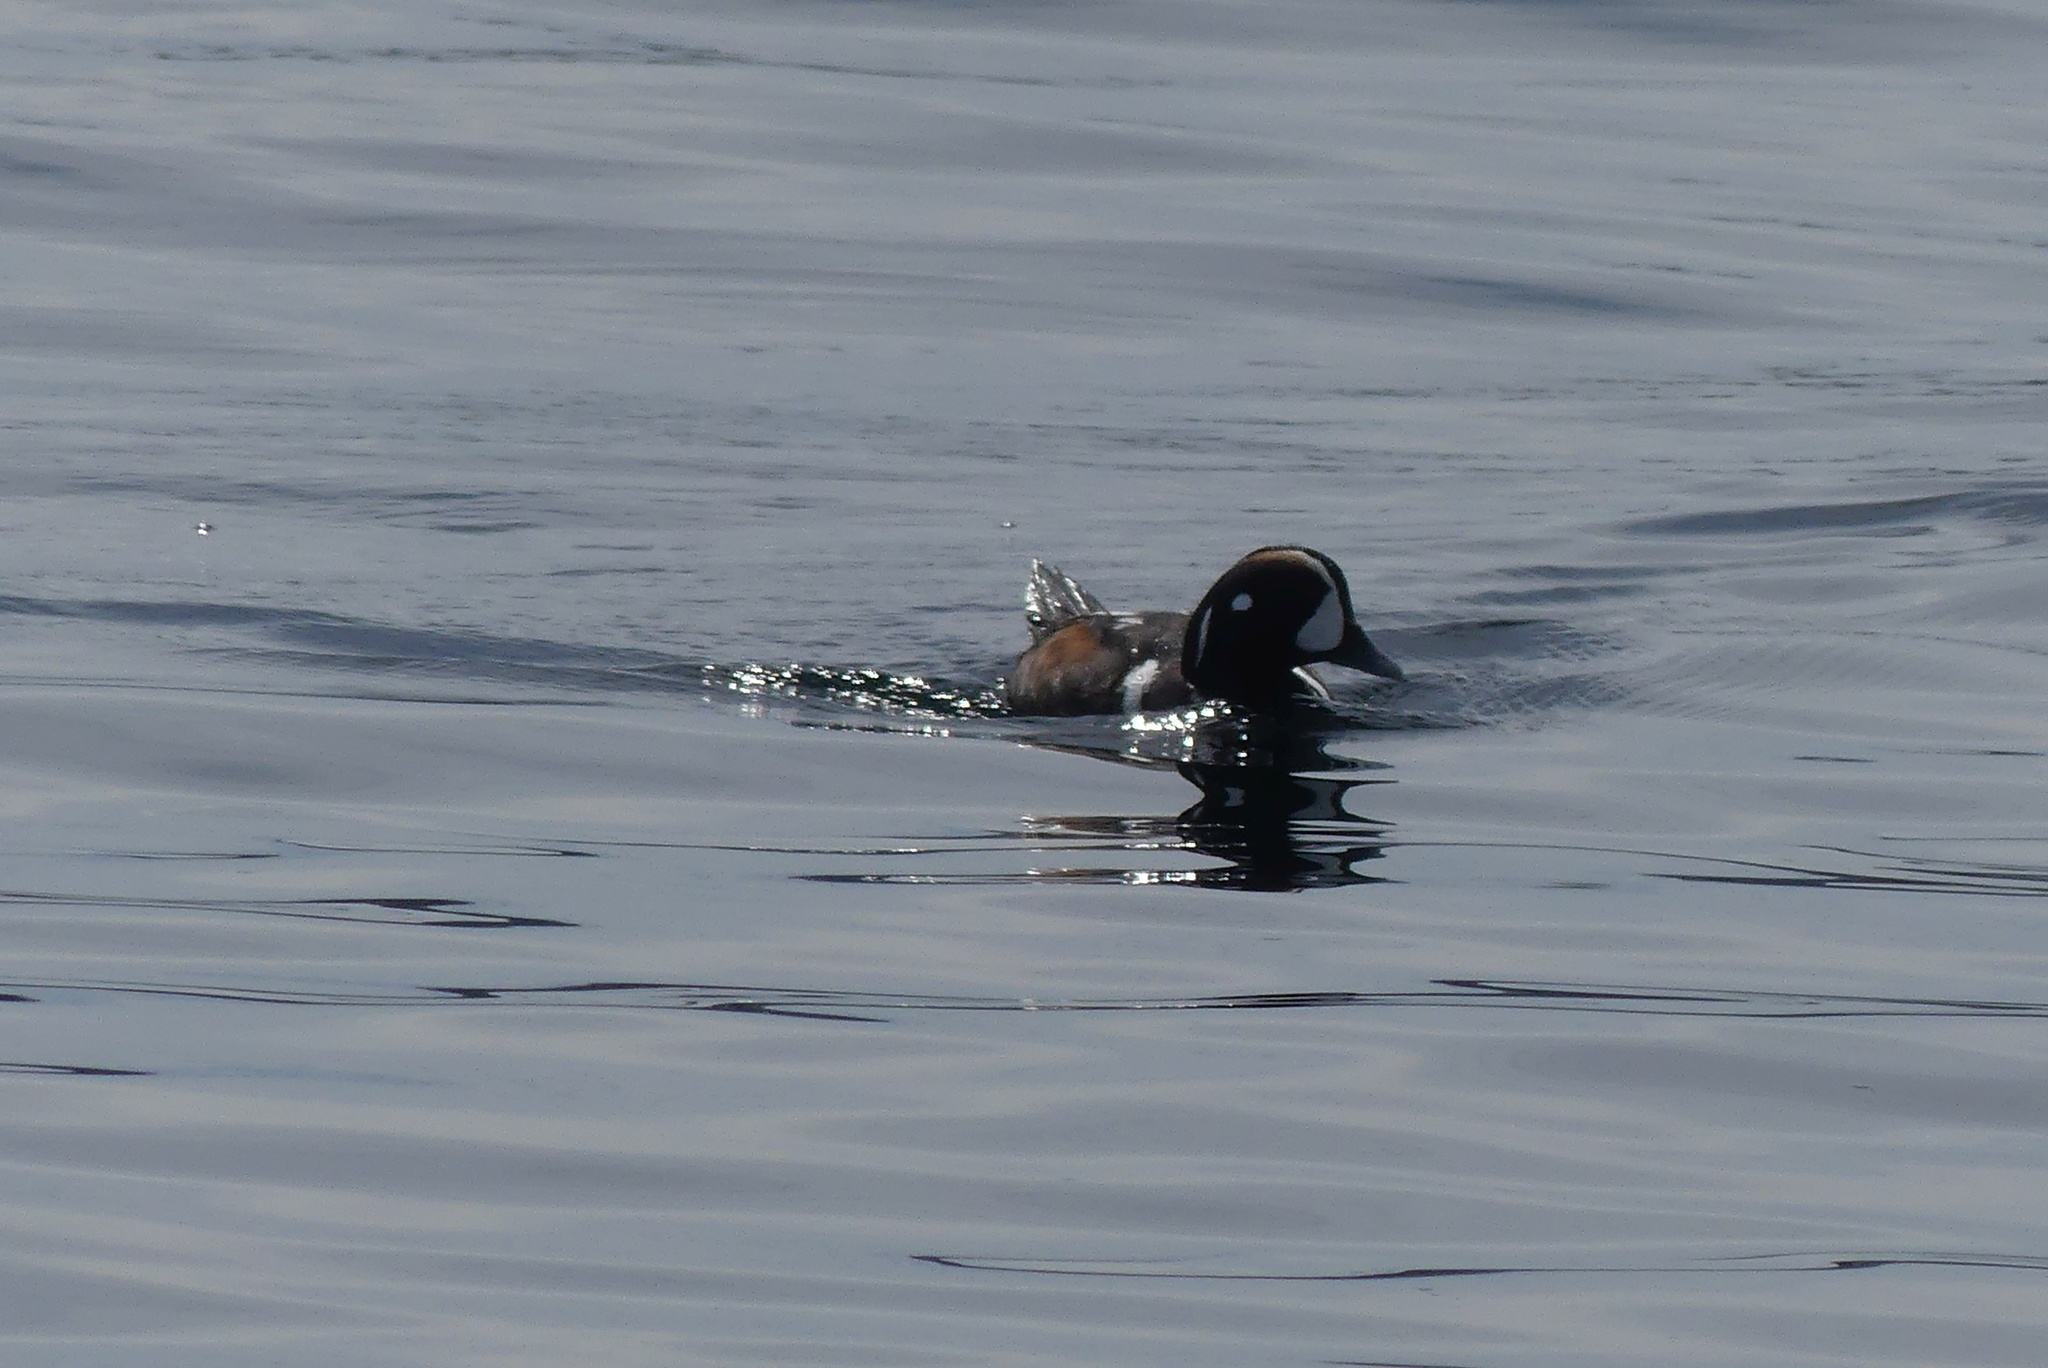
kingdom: Animalia
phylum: Chordata
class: Aves
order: Anseriformes
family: Anatidae
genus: Histrionicus
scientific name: Histrionicus histrionicus
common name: Harlequin duck
